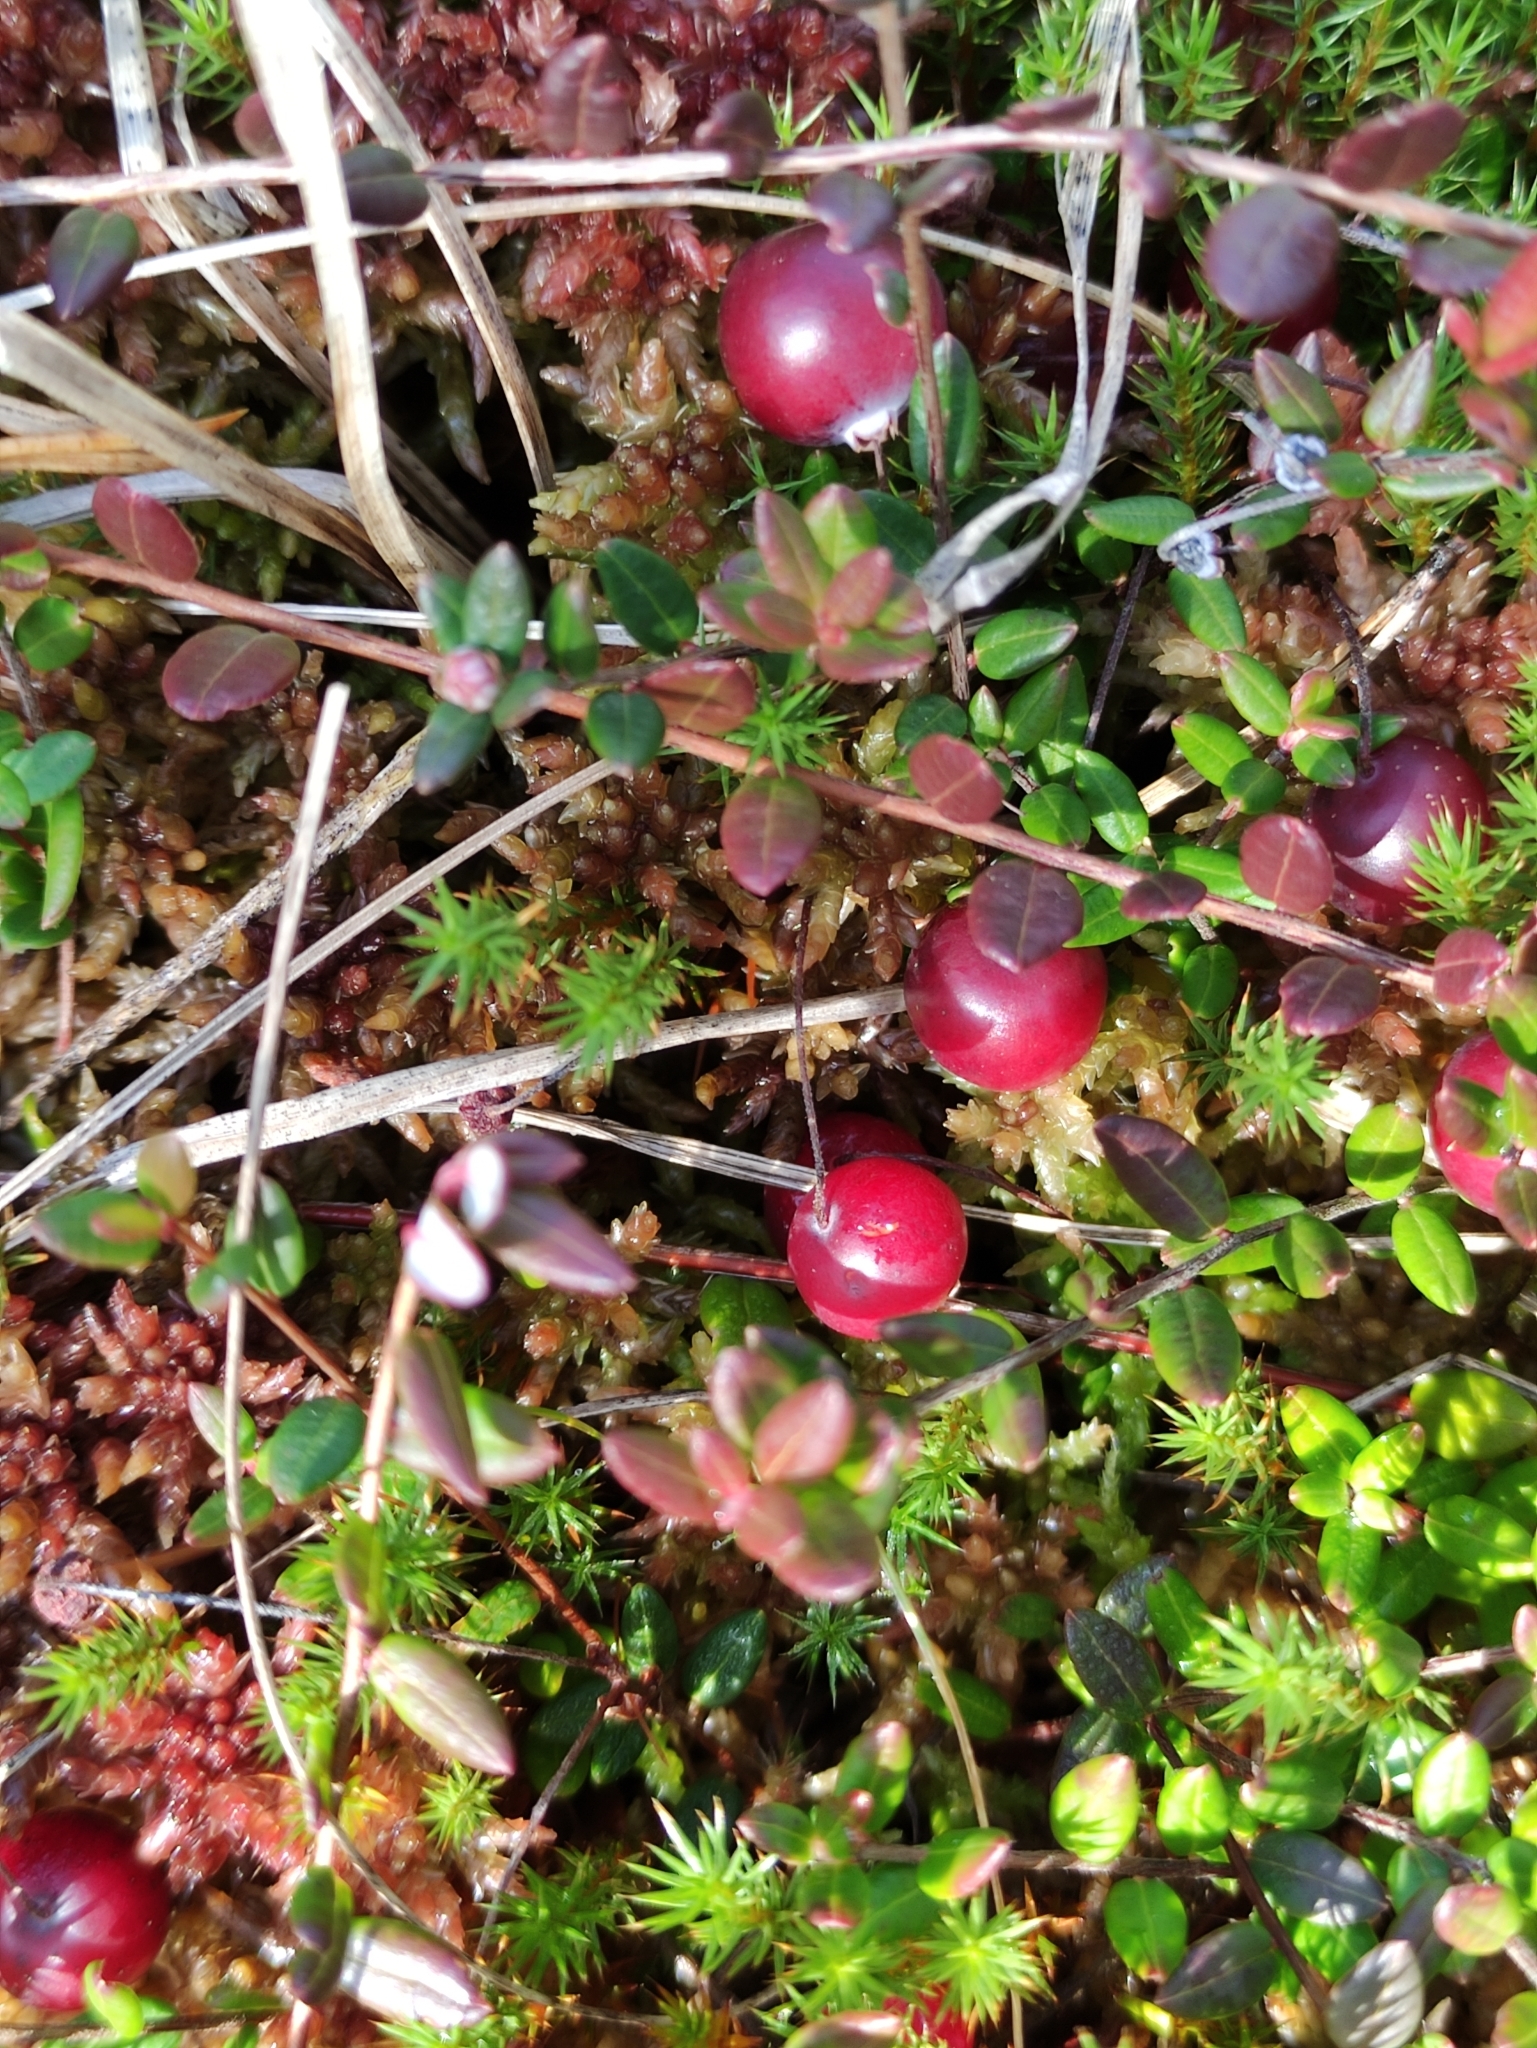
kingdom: Plantae
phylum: Tracheophyta
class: Magnoliopsida
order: Ericales
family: Ericaceae
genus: Vaccinium
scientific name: Vaccinium oxycoccos
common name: Cranberry
